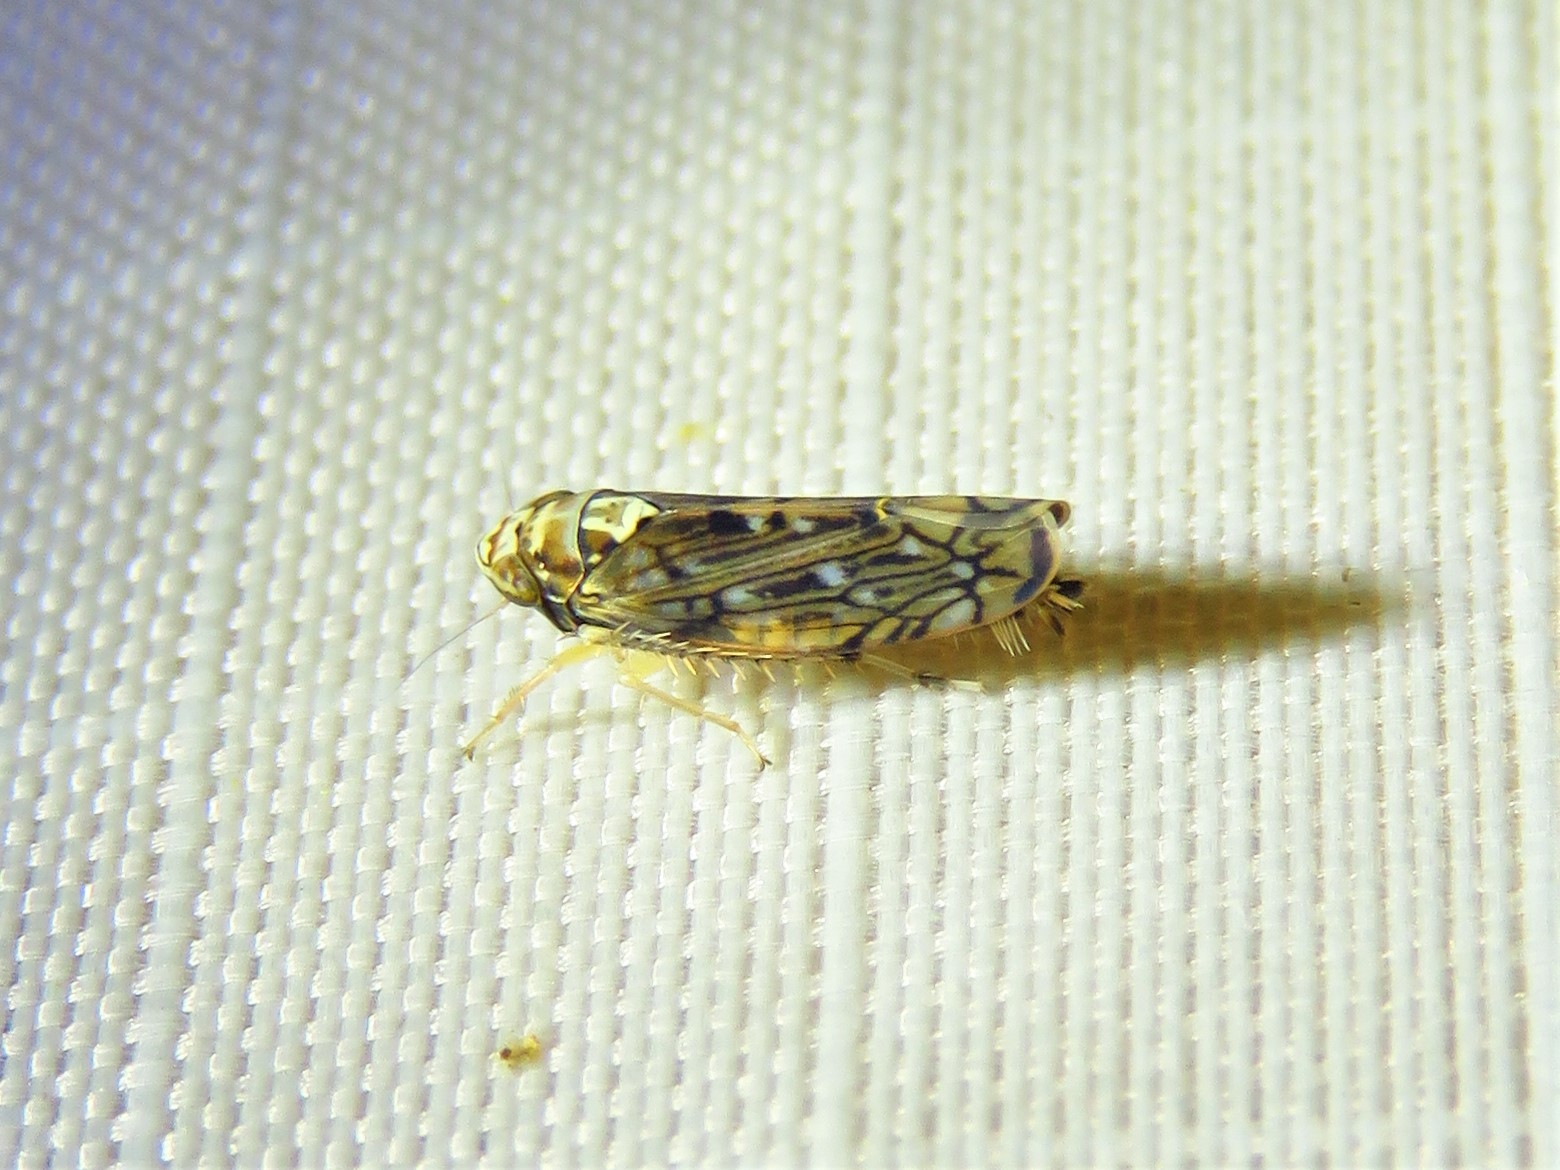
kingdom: Animalia
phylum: Arthropoda
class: Insecta
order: Hemiptera
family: Cicadellidae
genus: Scaphoideus
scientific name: Scaphoideus pullus
